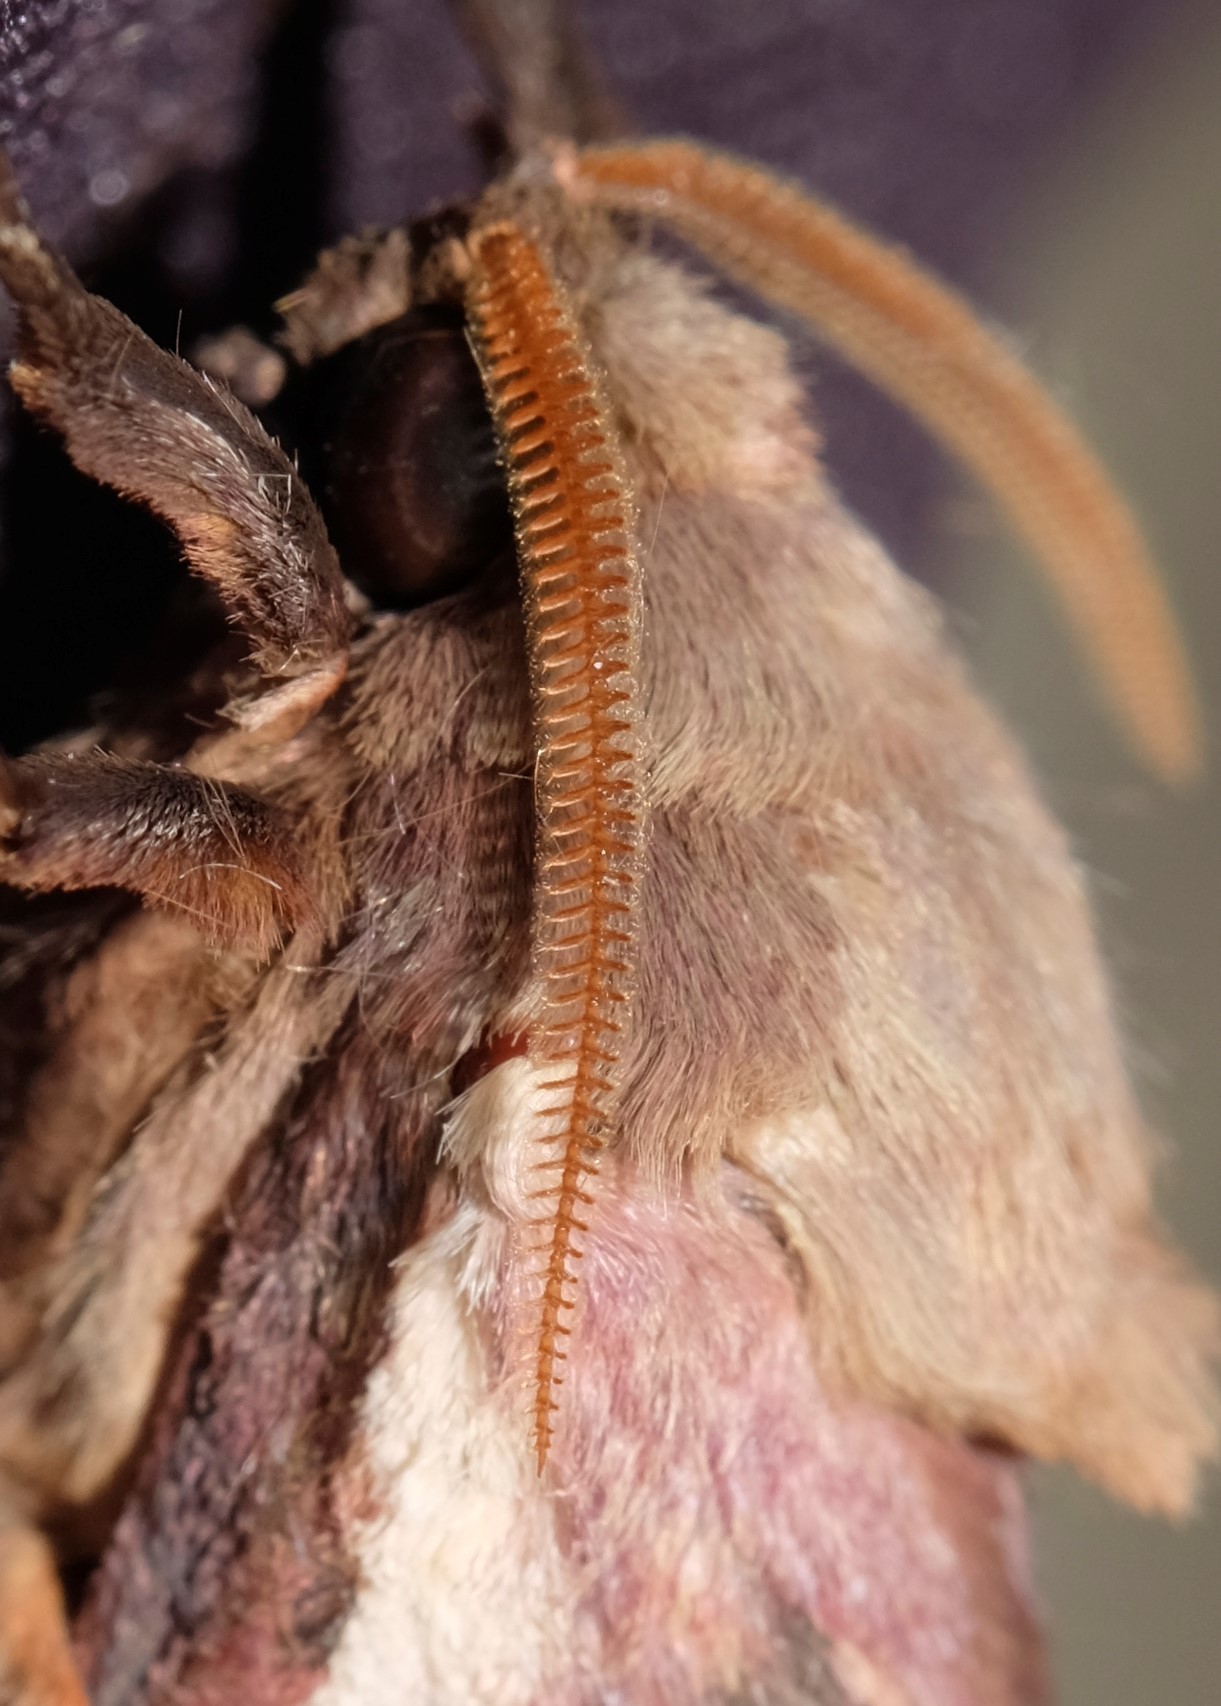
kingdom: Animalia
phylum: Arthropoda
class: Insecta
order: Lepidoptera
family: Hepialidae
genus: Oxycanus
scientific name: Oxycanus australis
